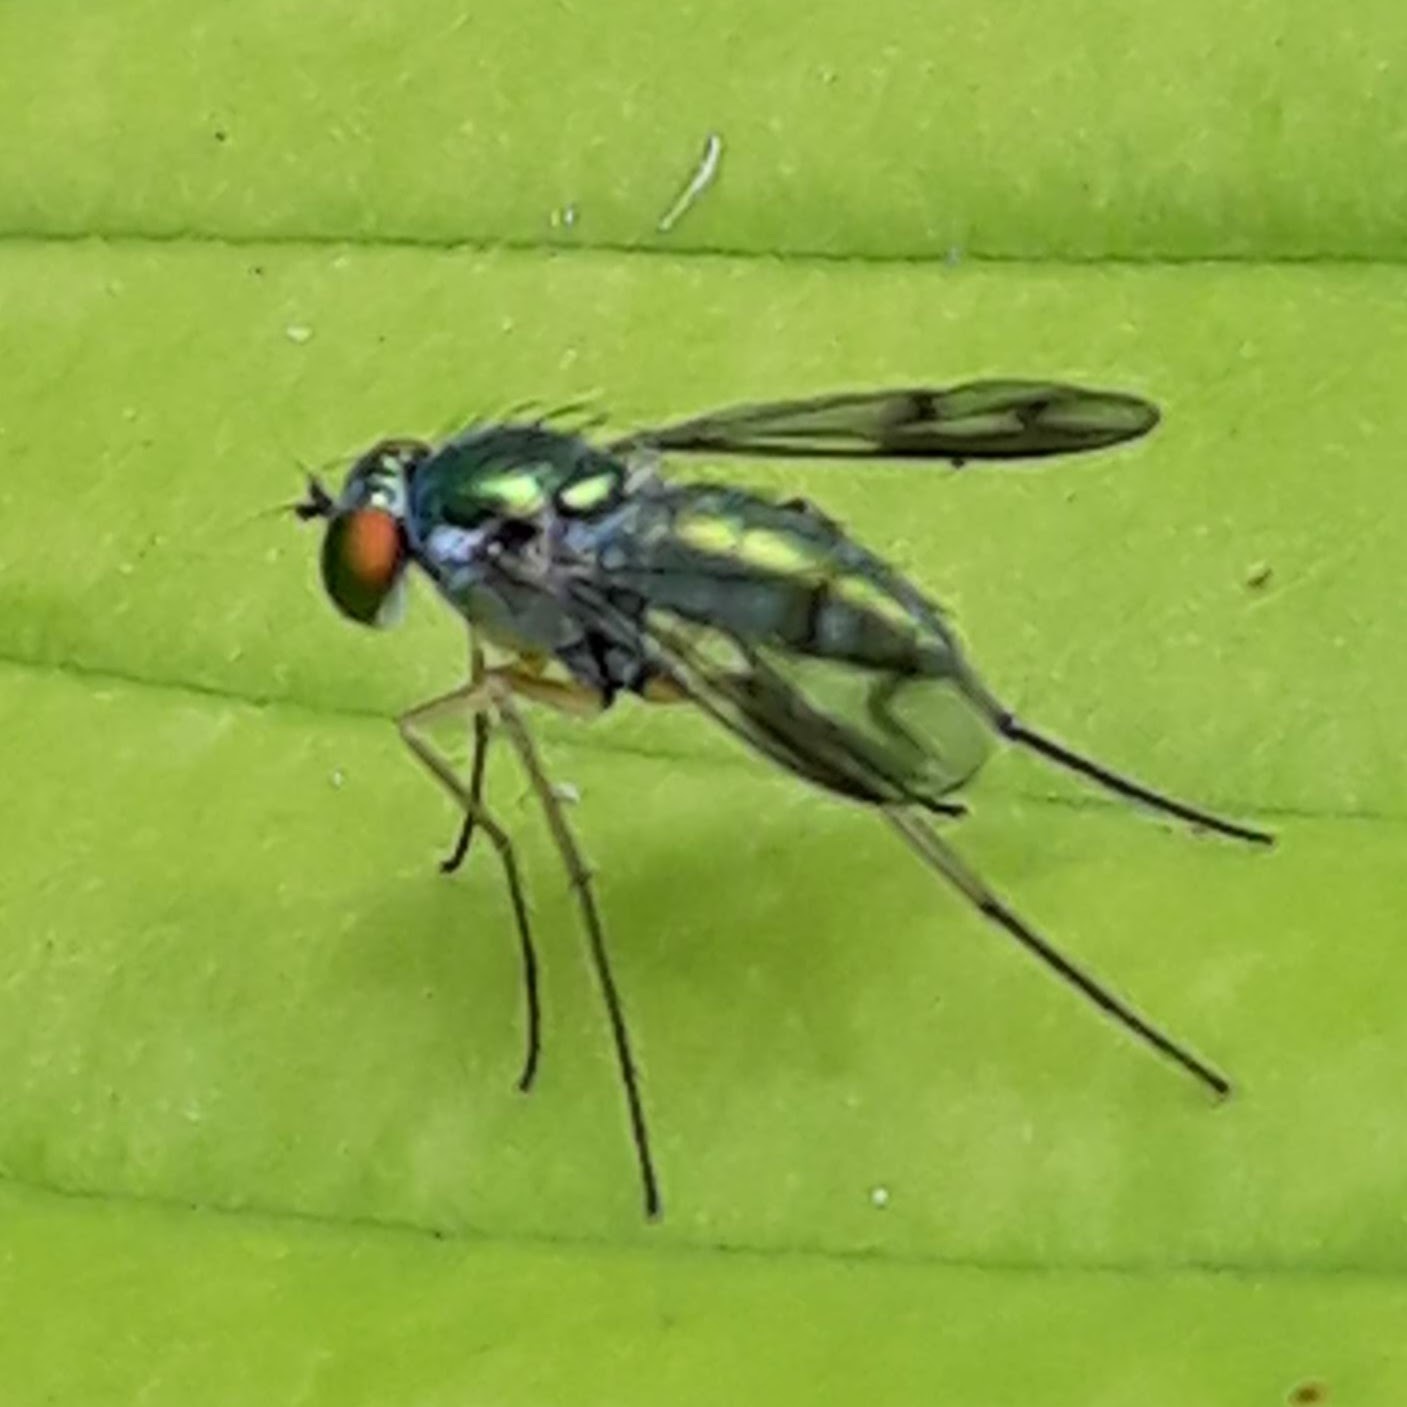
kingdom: Animalia
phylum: Arthropoda
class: Insecta
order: Diptera
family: Dolichopodidae
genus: Condylostylus
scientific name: Condylostylus
